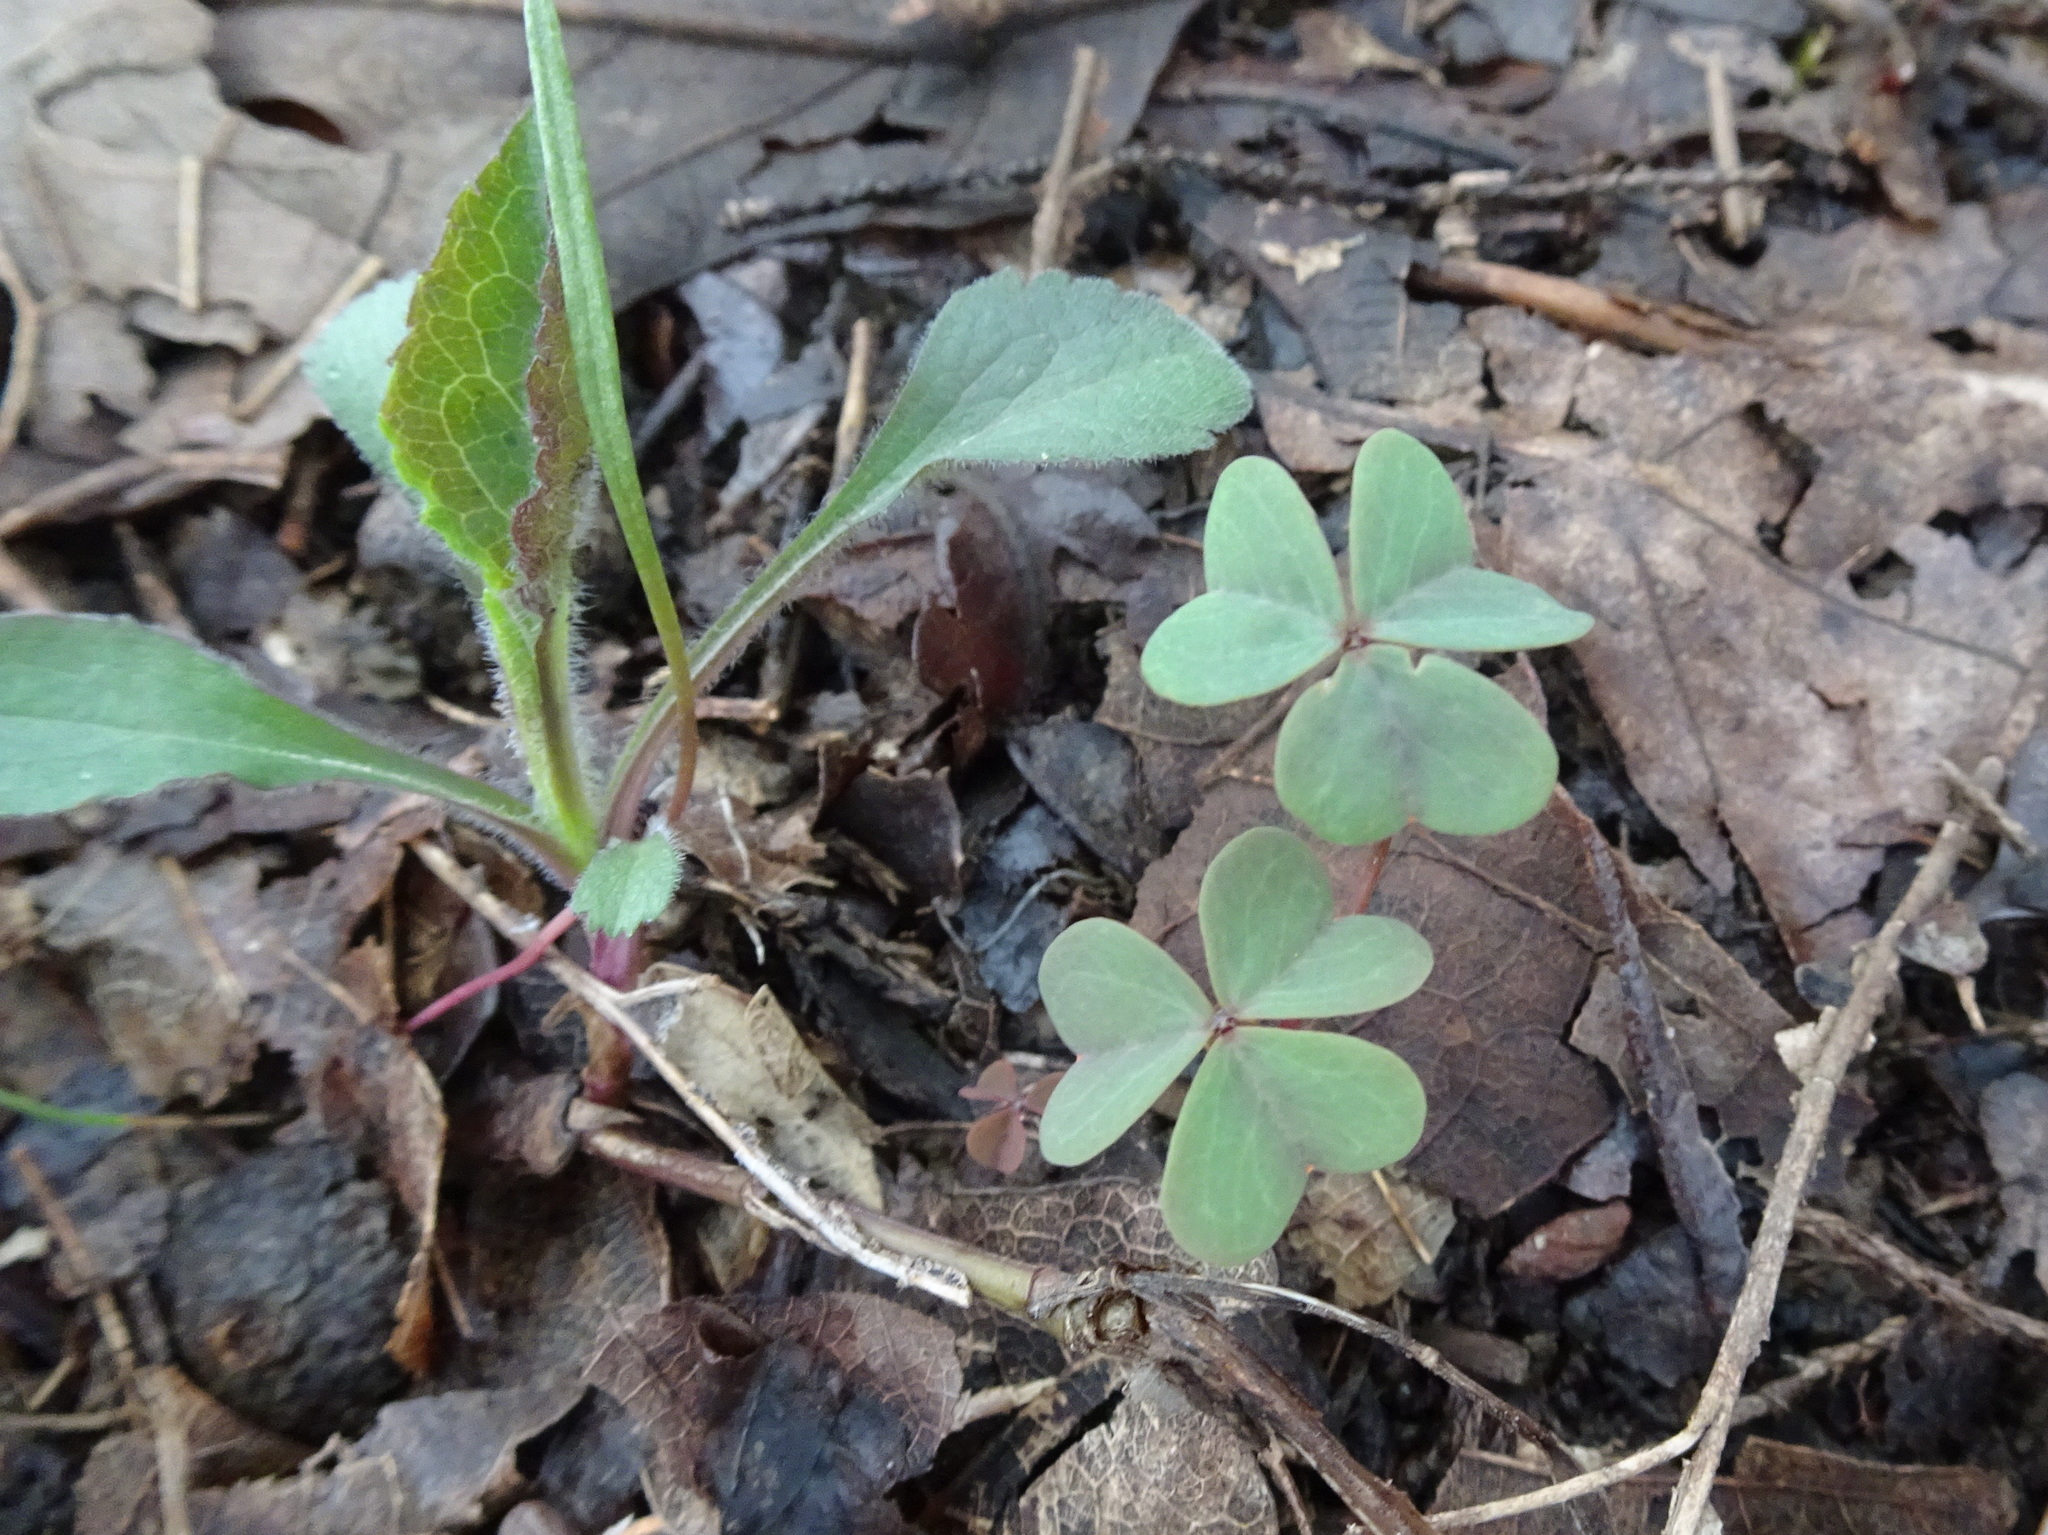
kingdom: Plantae
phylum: Tracheophyta
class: Magnoliopsida
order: Oxalidales
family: Oxalidaceae
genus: Oxalis
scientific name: Oxalis violacea
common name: Violet wood-sorrel
